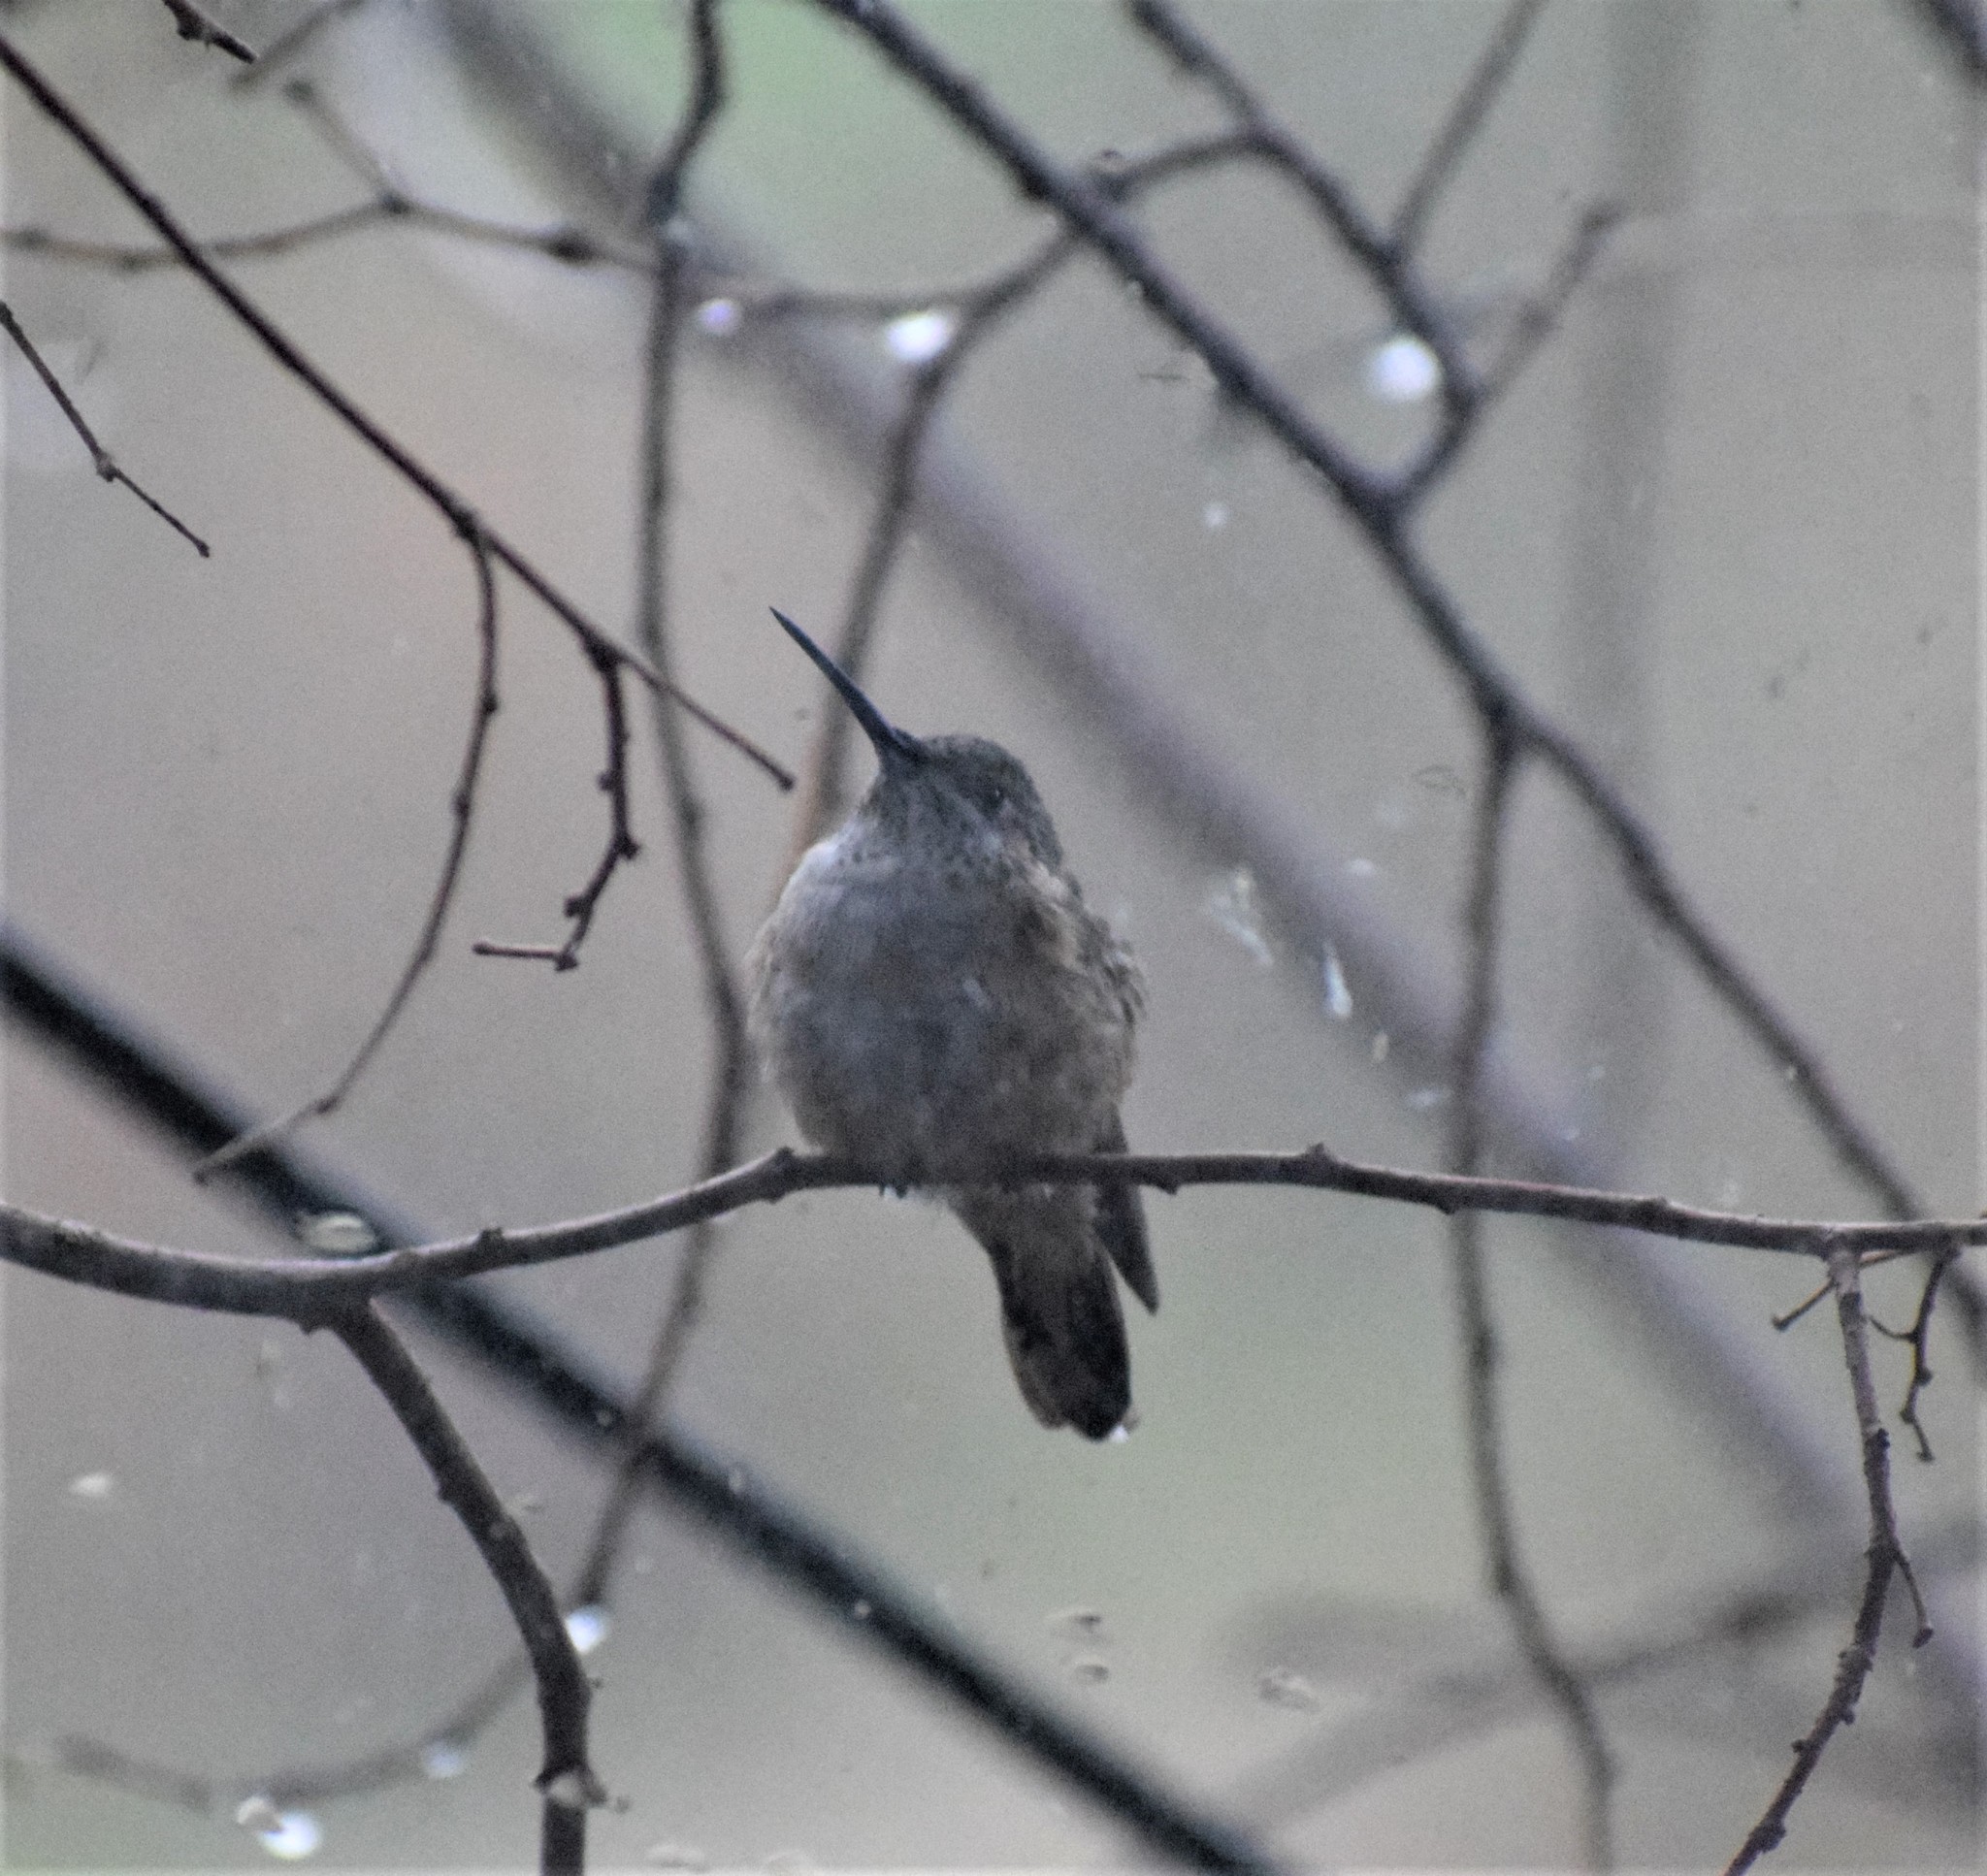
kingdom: Animalia
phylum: Chordata
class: Aves
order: Apodiformes
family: Trochilidae
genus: Selasphorus
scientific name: Selasphorus platycercus
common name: Broad-tailed hummingbird
